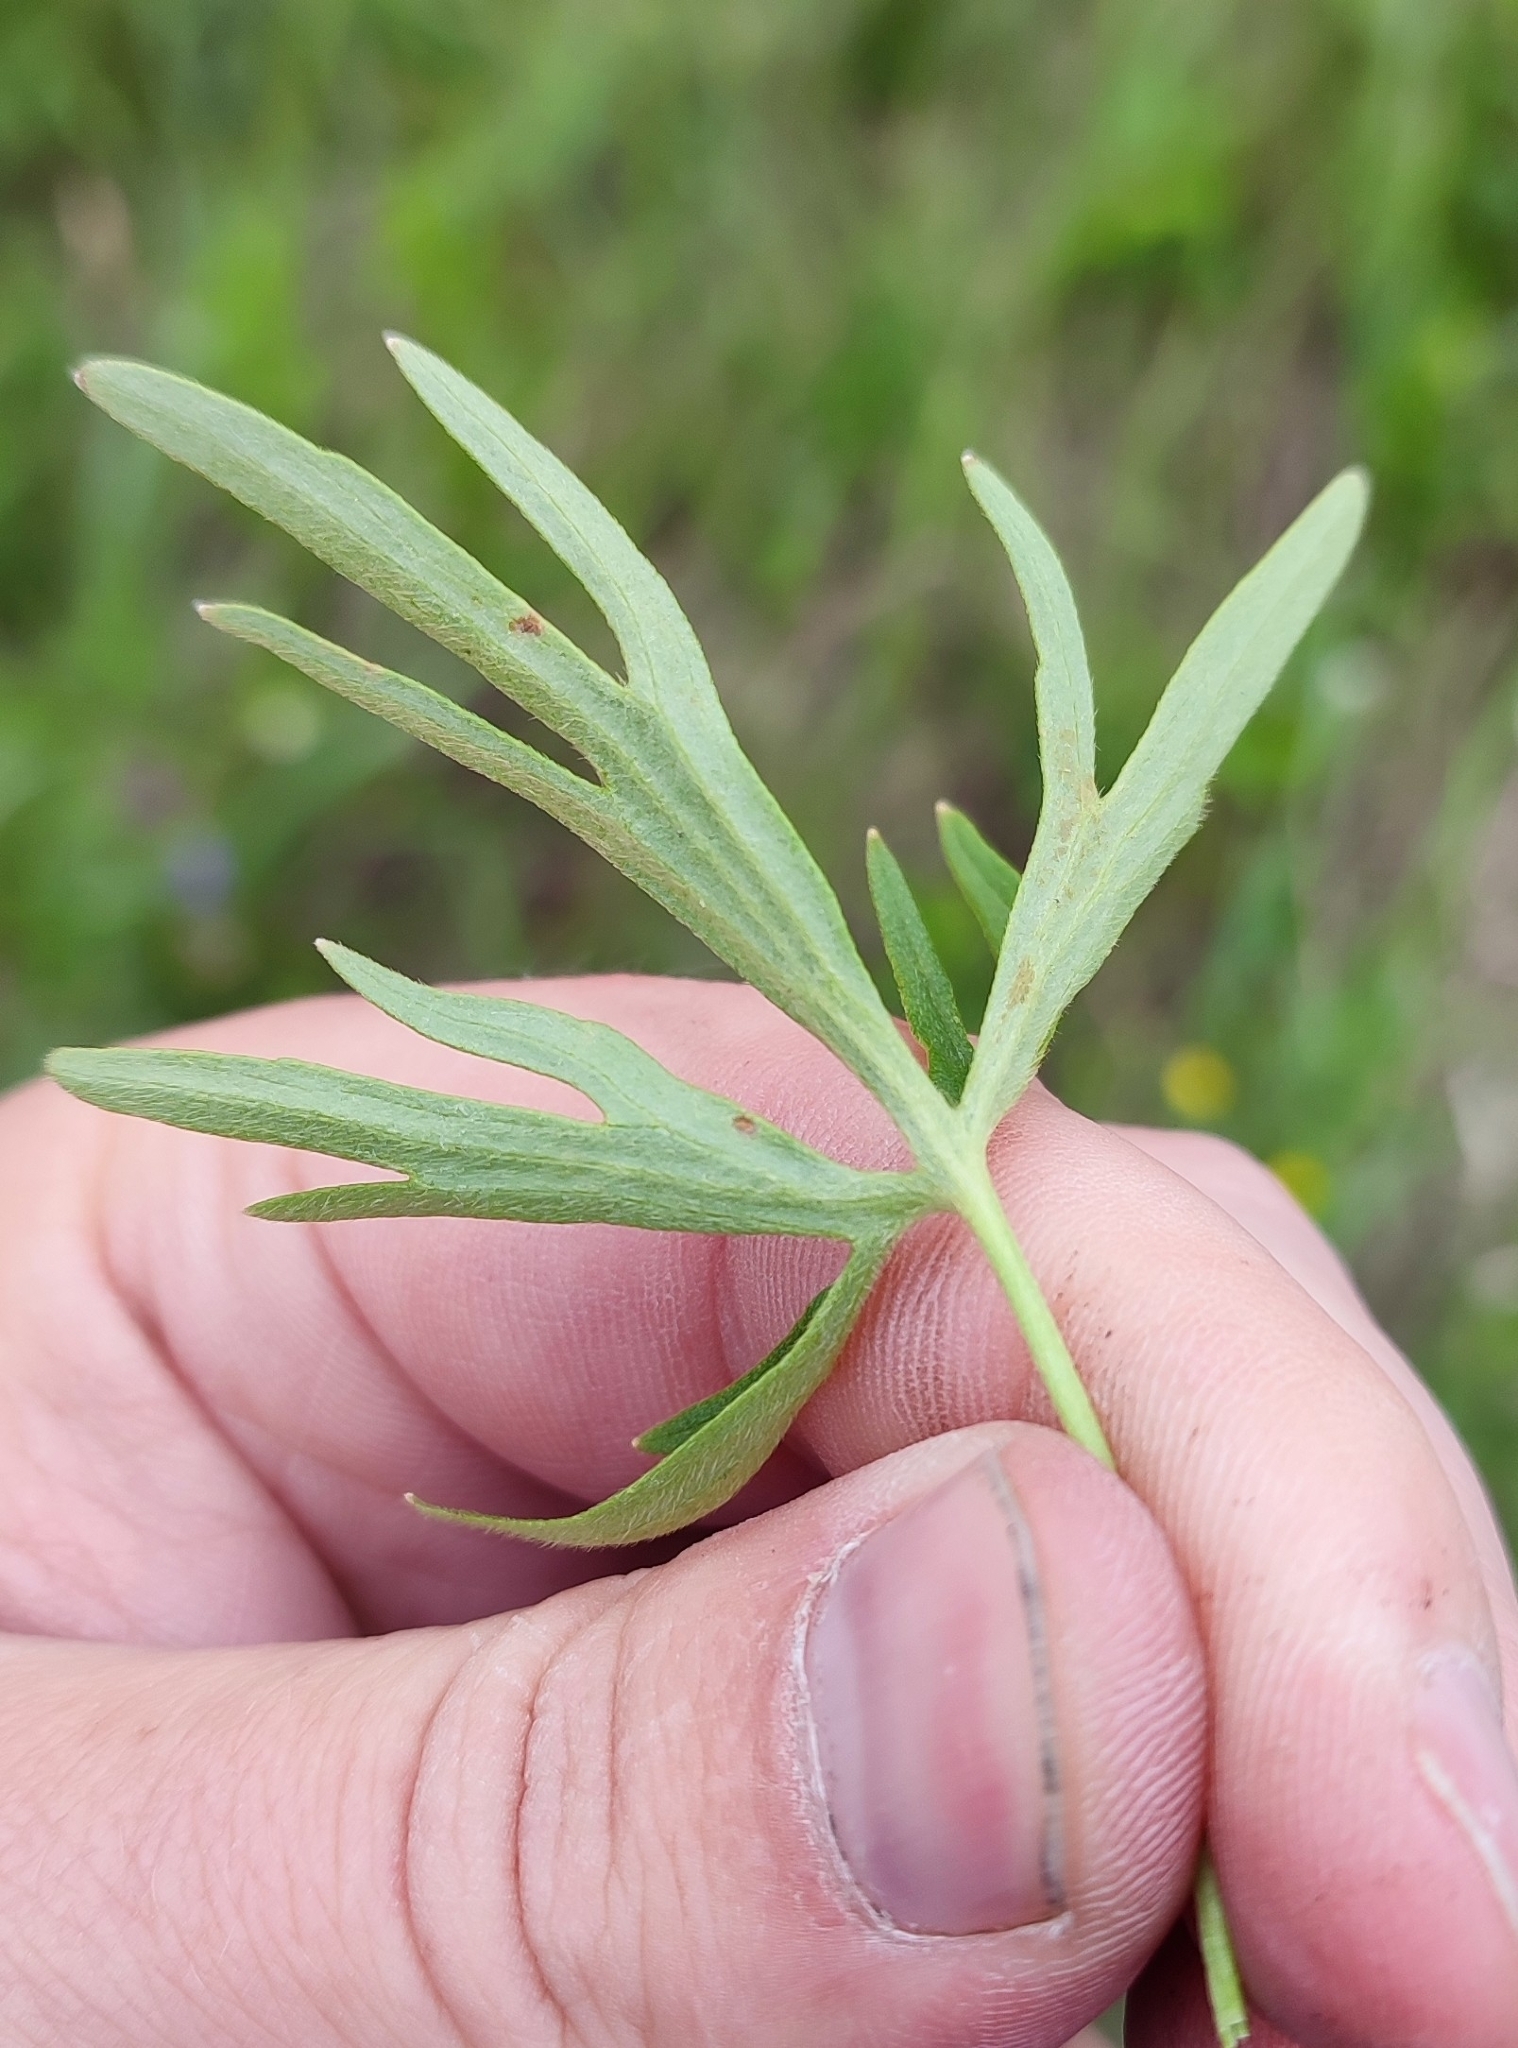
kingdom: Plantae
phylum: Tracheophyta
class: Magnoliopsida
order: Ranunculales
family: Ranunculaceae
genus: Ranunculus
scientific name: Ranunculus acris
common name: Meadow buttercup
